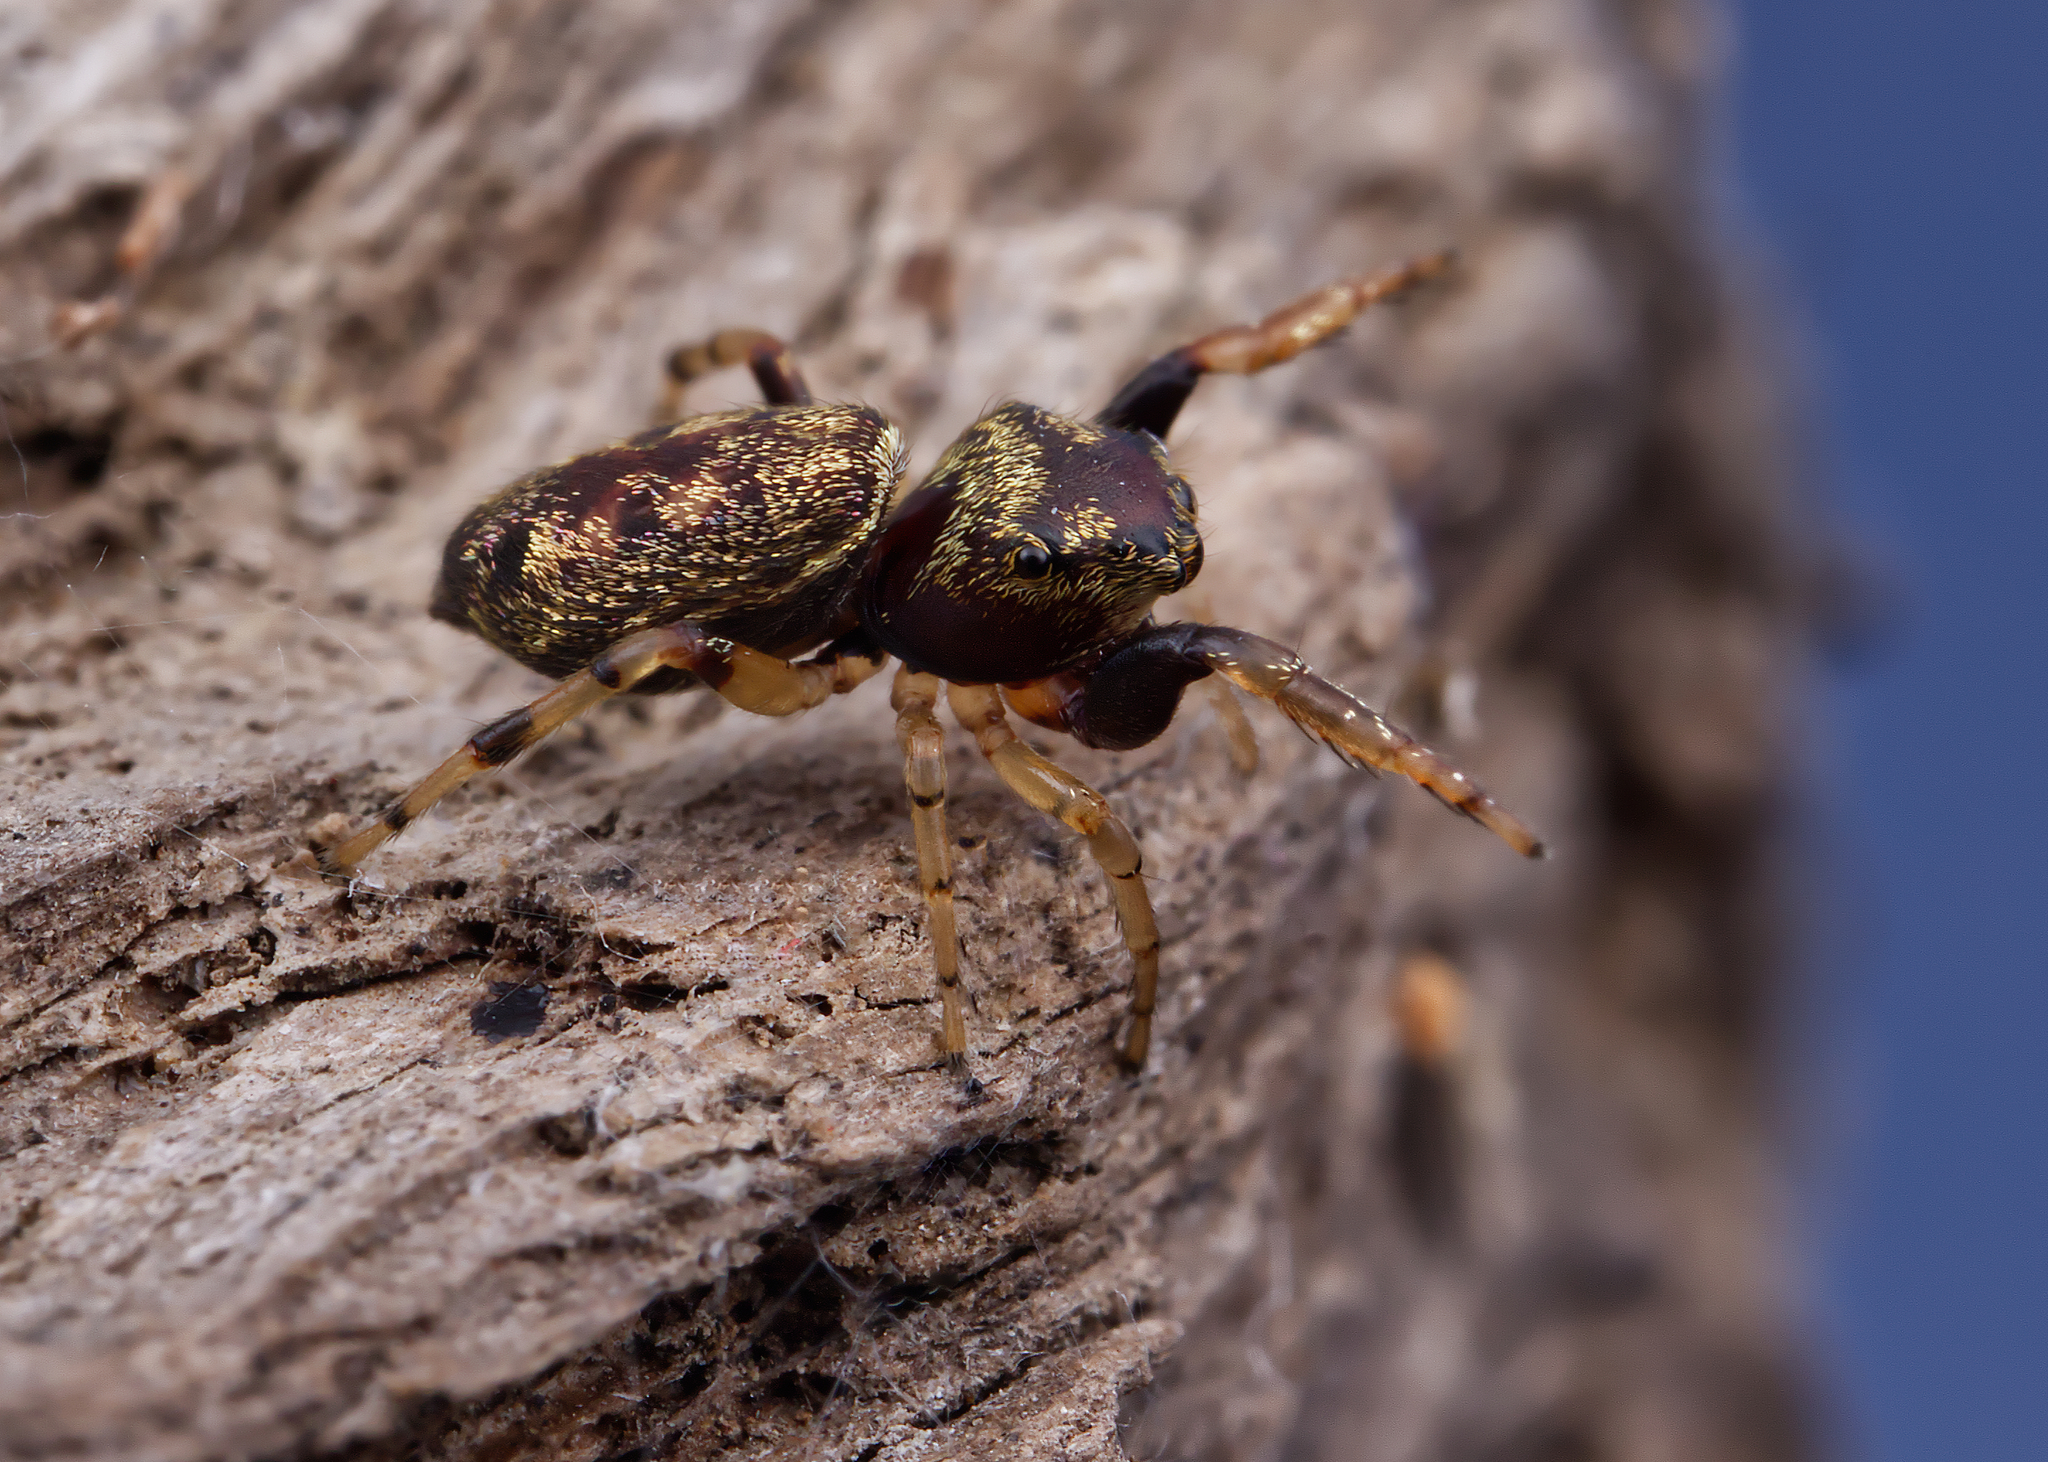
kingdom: Animalia
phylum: Arthropoda
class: Arachnida
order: Araneae
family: Salticidae
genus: Zygoballus
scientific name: Zygoballus rufipes
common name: Jumping spiders
